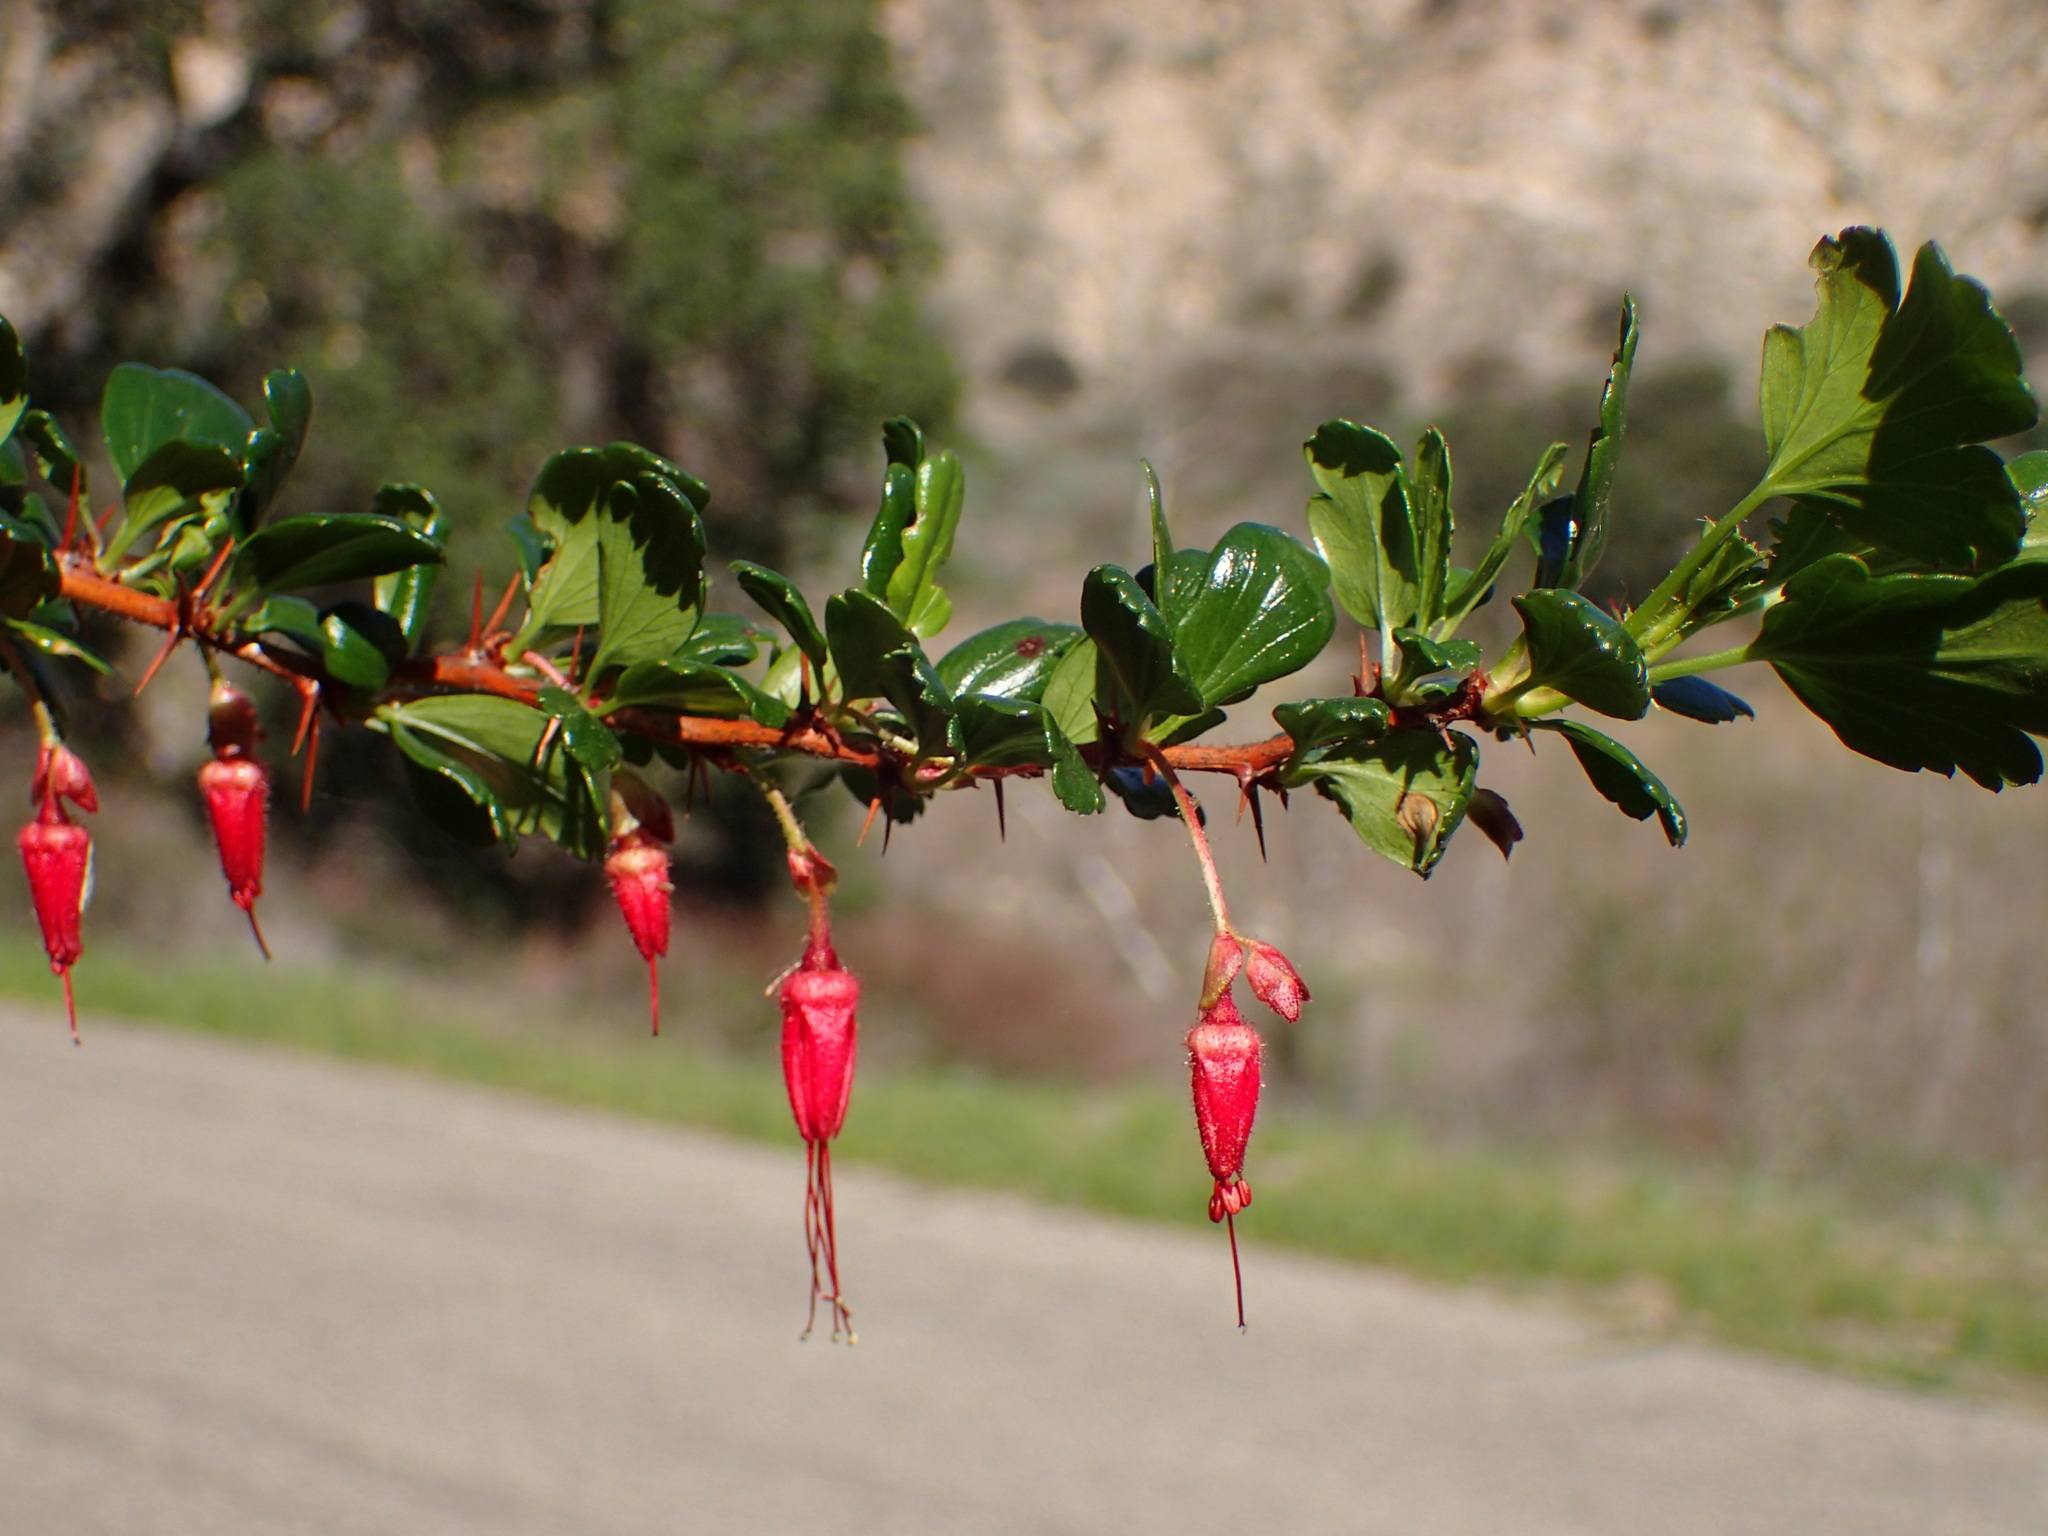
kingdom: Plantae
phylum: Tracheophyta
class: Magnoliopsida
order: Saxifragales
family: Grossulariaceae
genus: Ribes
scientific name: Ribes speciosum
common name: Fuchsia-flower gooseberry
